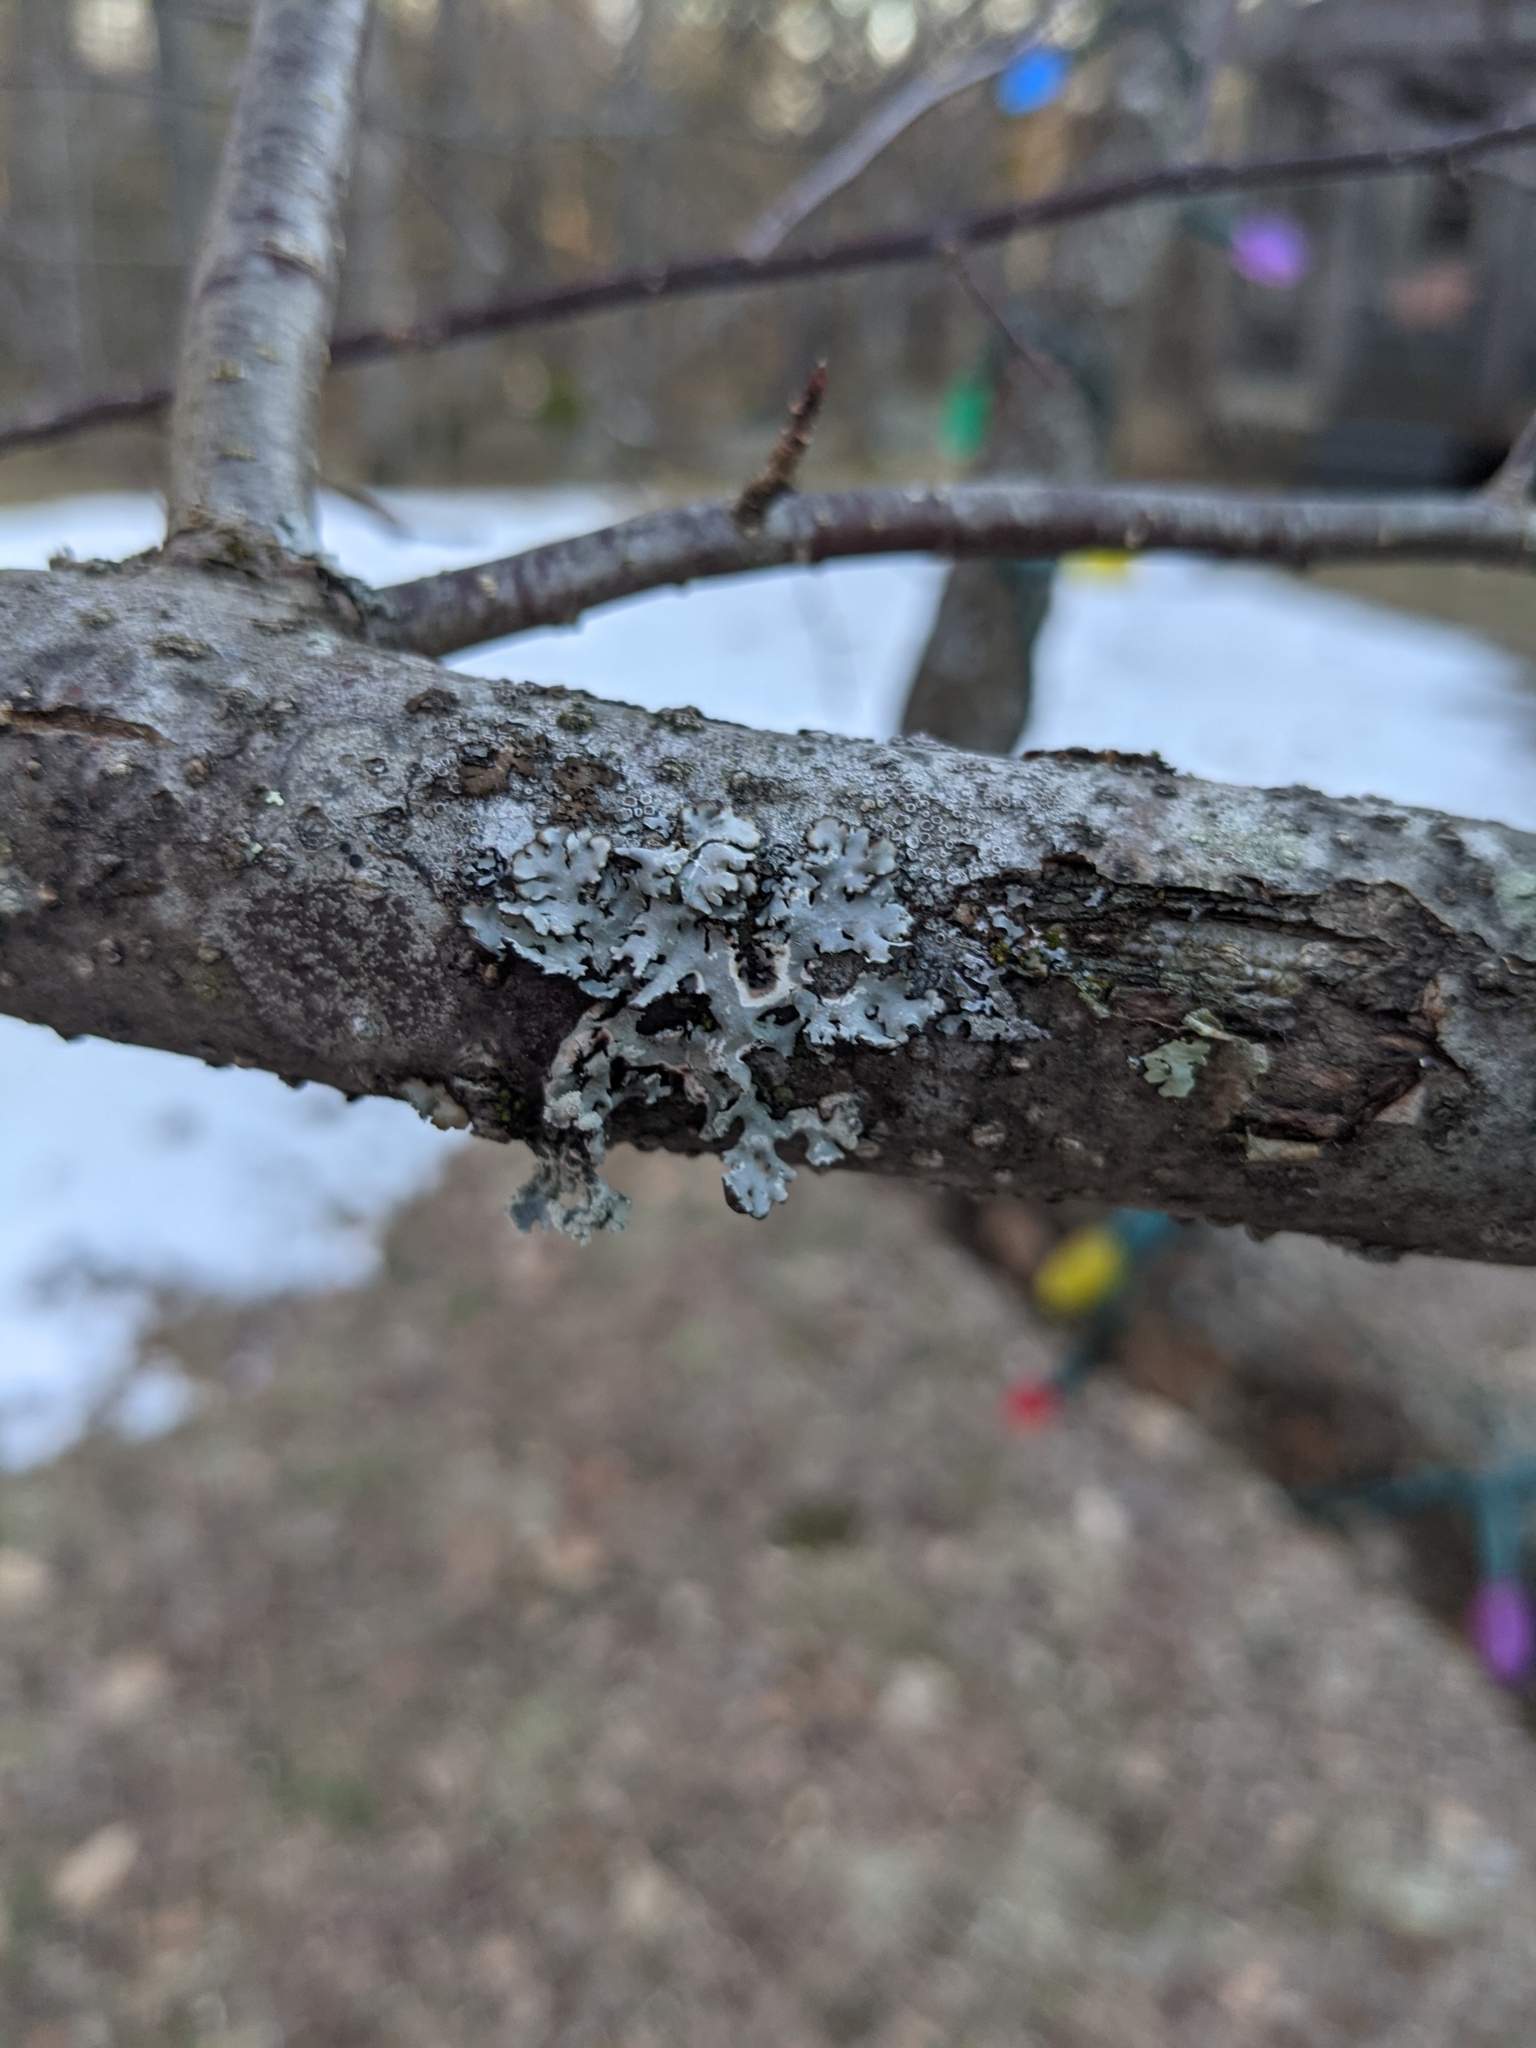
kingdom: Fungi
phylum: Ascomycota
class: Lecanoromycetes
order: Lecanorales
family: Parmeliaceae
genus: Hypogymnia
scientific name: Hypogymnia physodes
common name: Dark crottle
